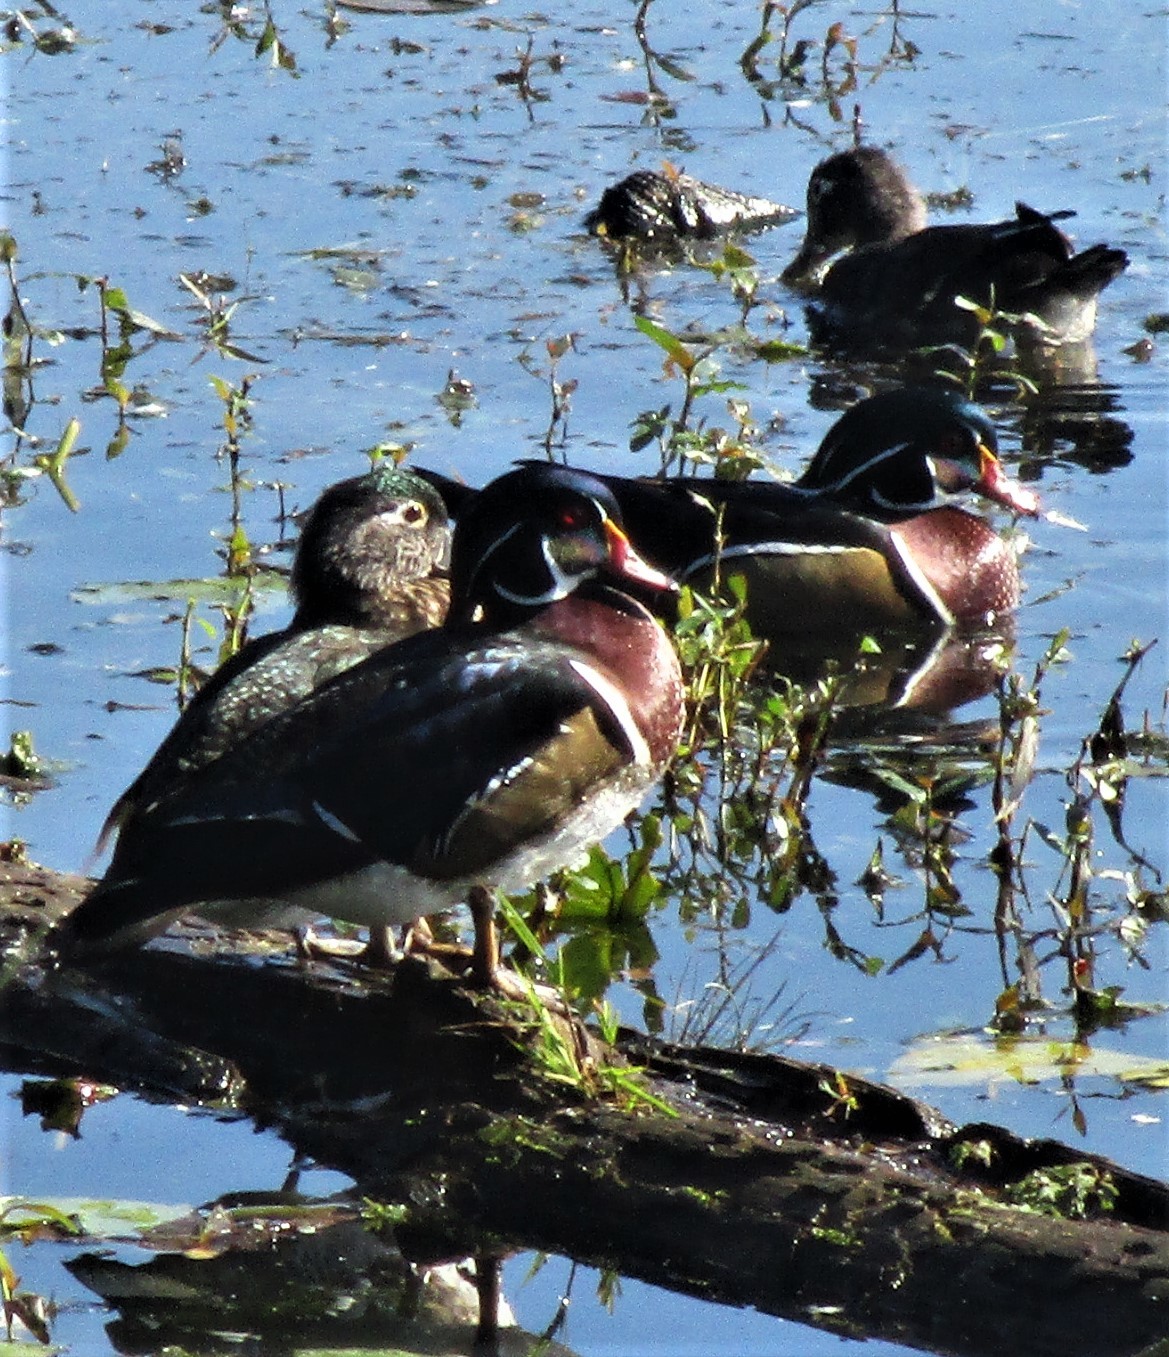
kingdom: Animalia
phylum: Chordata
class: Aves
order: Anseriformes
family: Anatidae
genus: Aix
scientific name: Aix sponsa
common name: Wood duck
